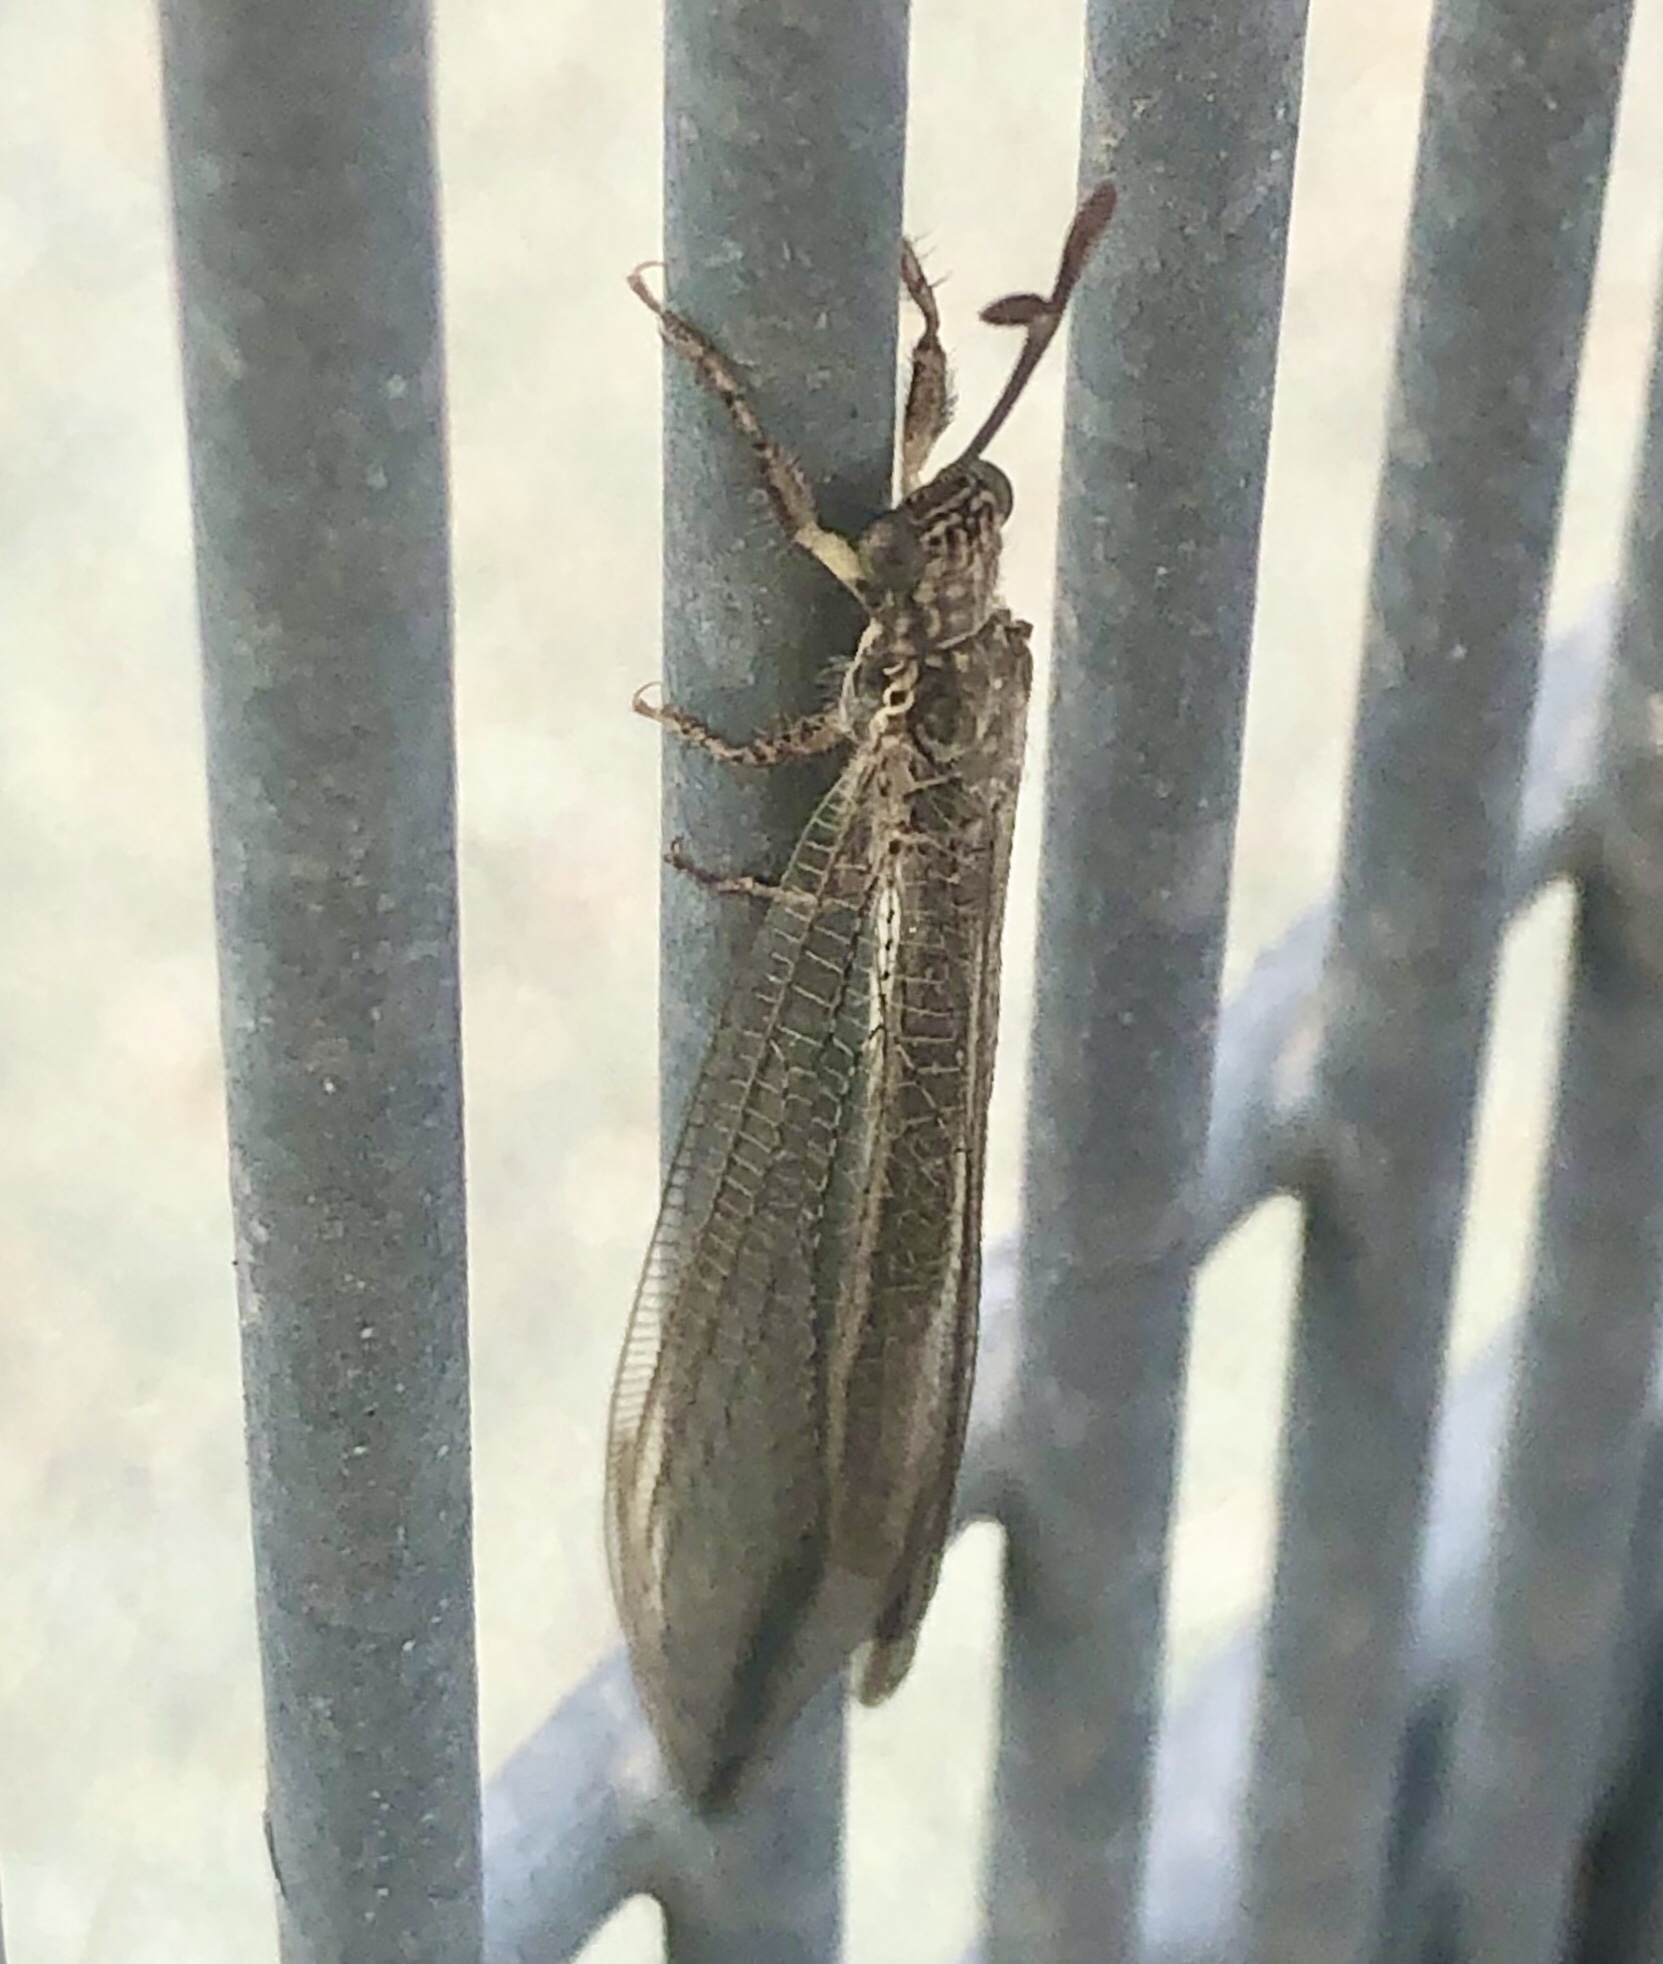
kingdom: Animalia
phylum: Arthropoda
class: Insecta
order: Neuroptera
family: Myrmeleontidae
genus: Myrmeleon
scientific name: Myrmeleon acer
